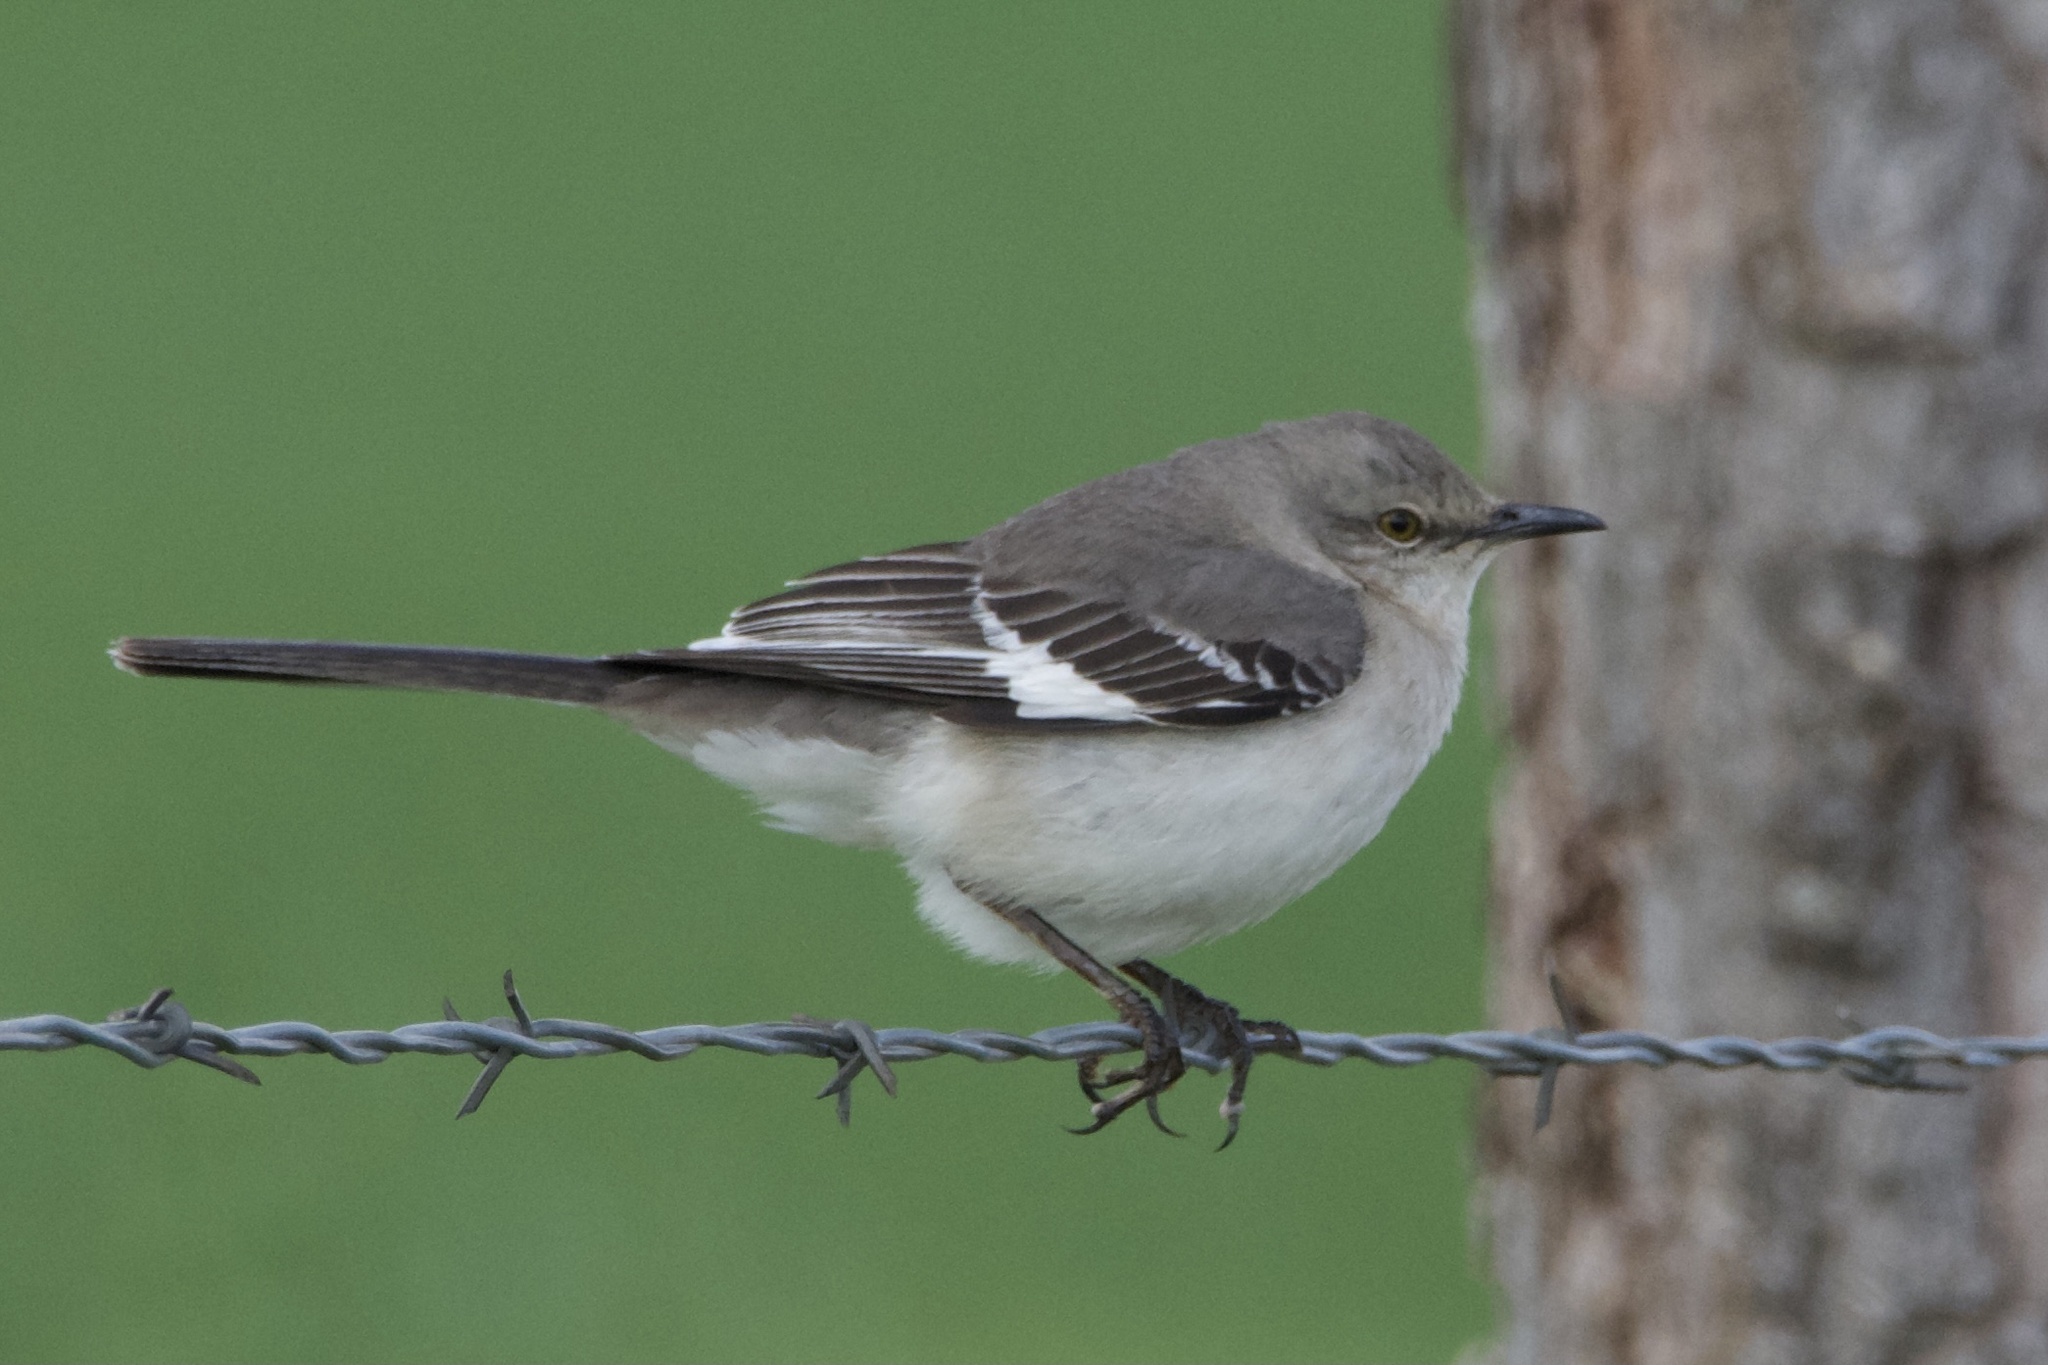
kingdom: Animalia
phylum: Chordata
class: Aves
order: Passeriformes
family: Mimidae
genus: Mimus
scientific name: Mimus polyglottos
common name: Northern mockingbird
